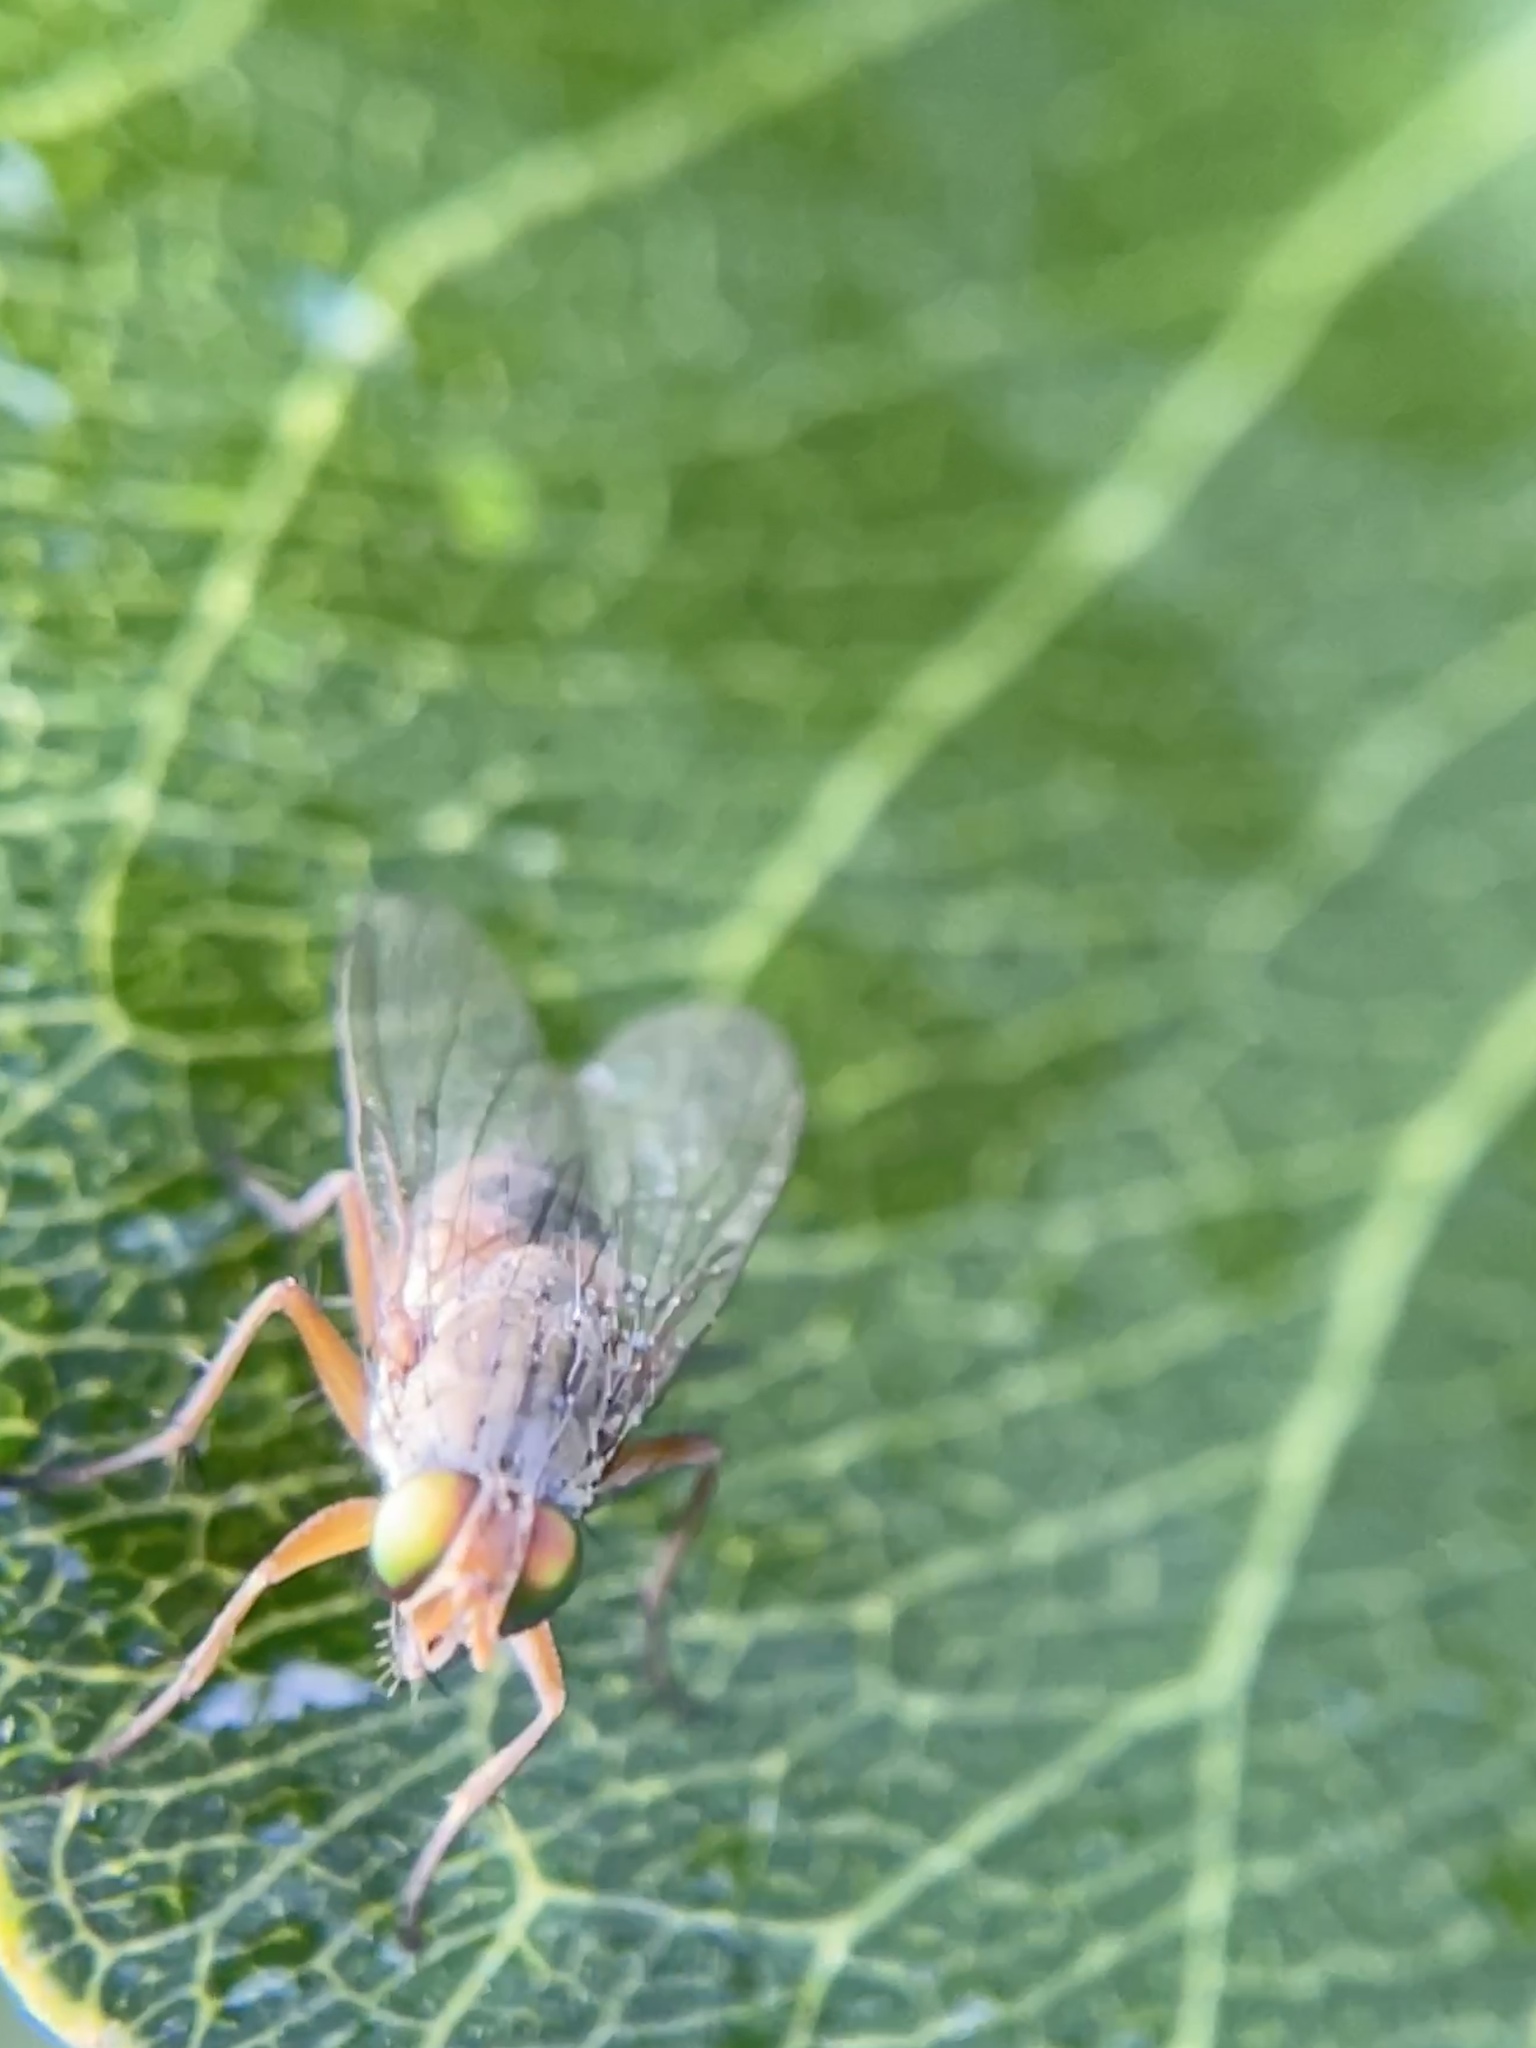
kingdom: Animalia
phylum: Arthropoda
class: Insecta
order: Diptera
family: Muscidae
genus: Pygophora
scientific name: Pygophora apicalis
